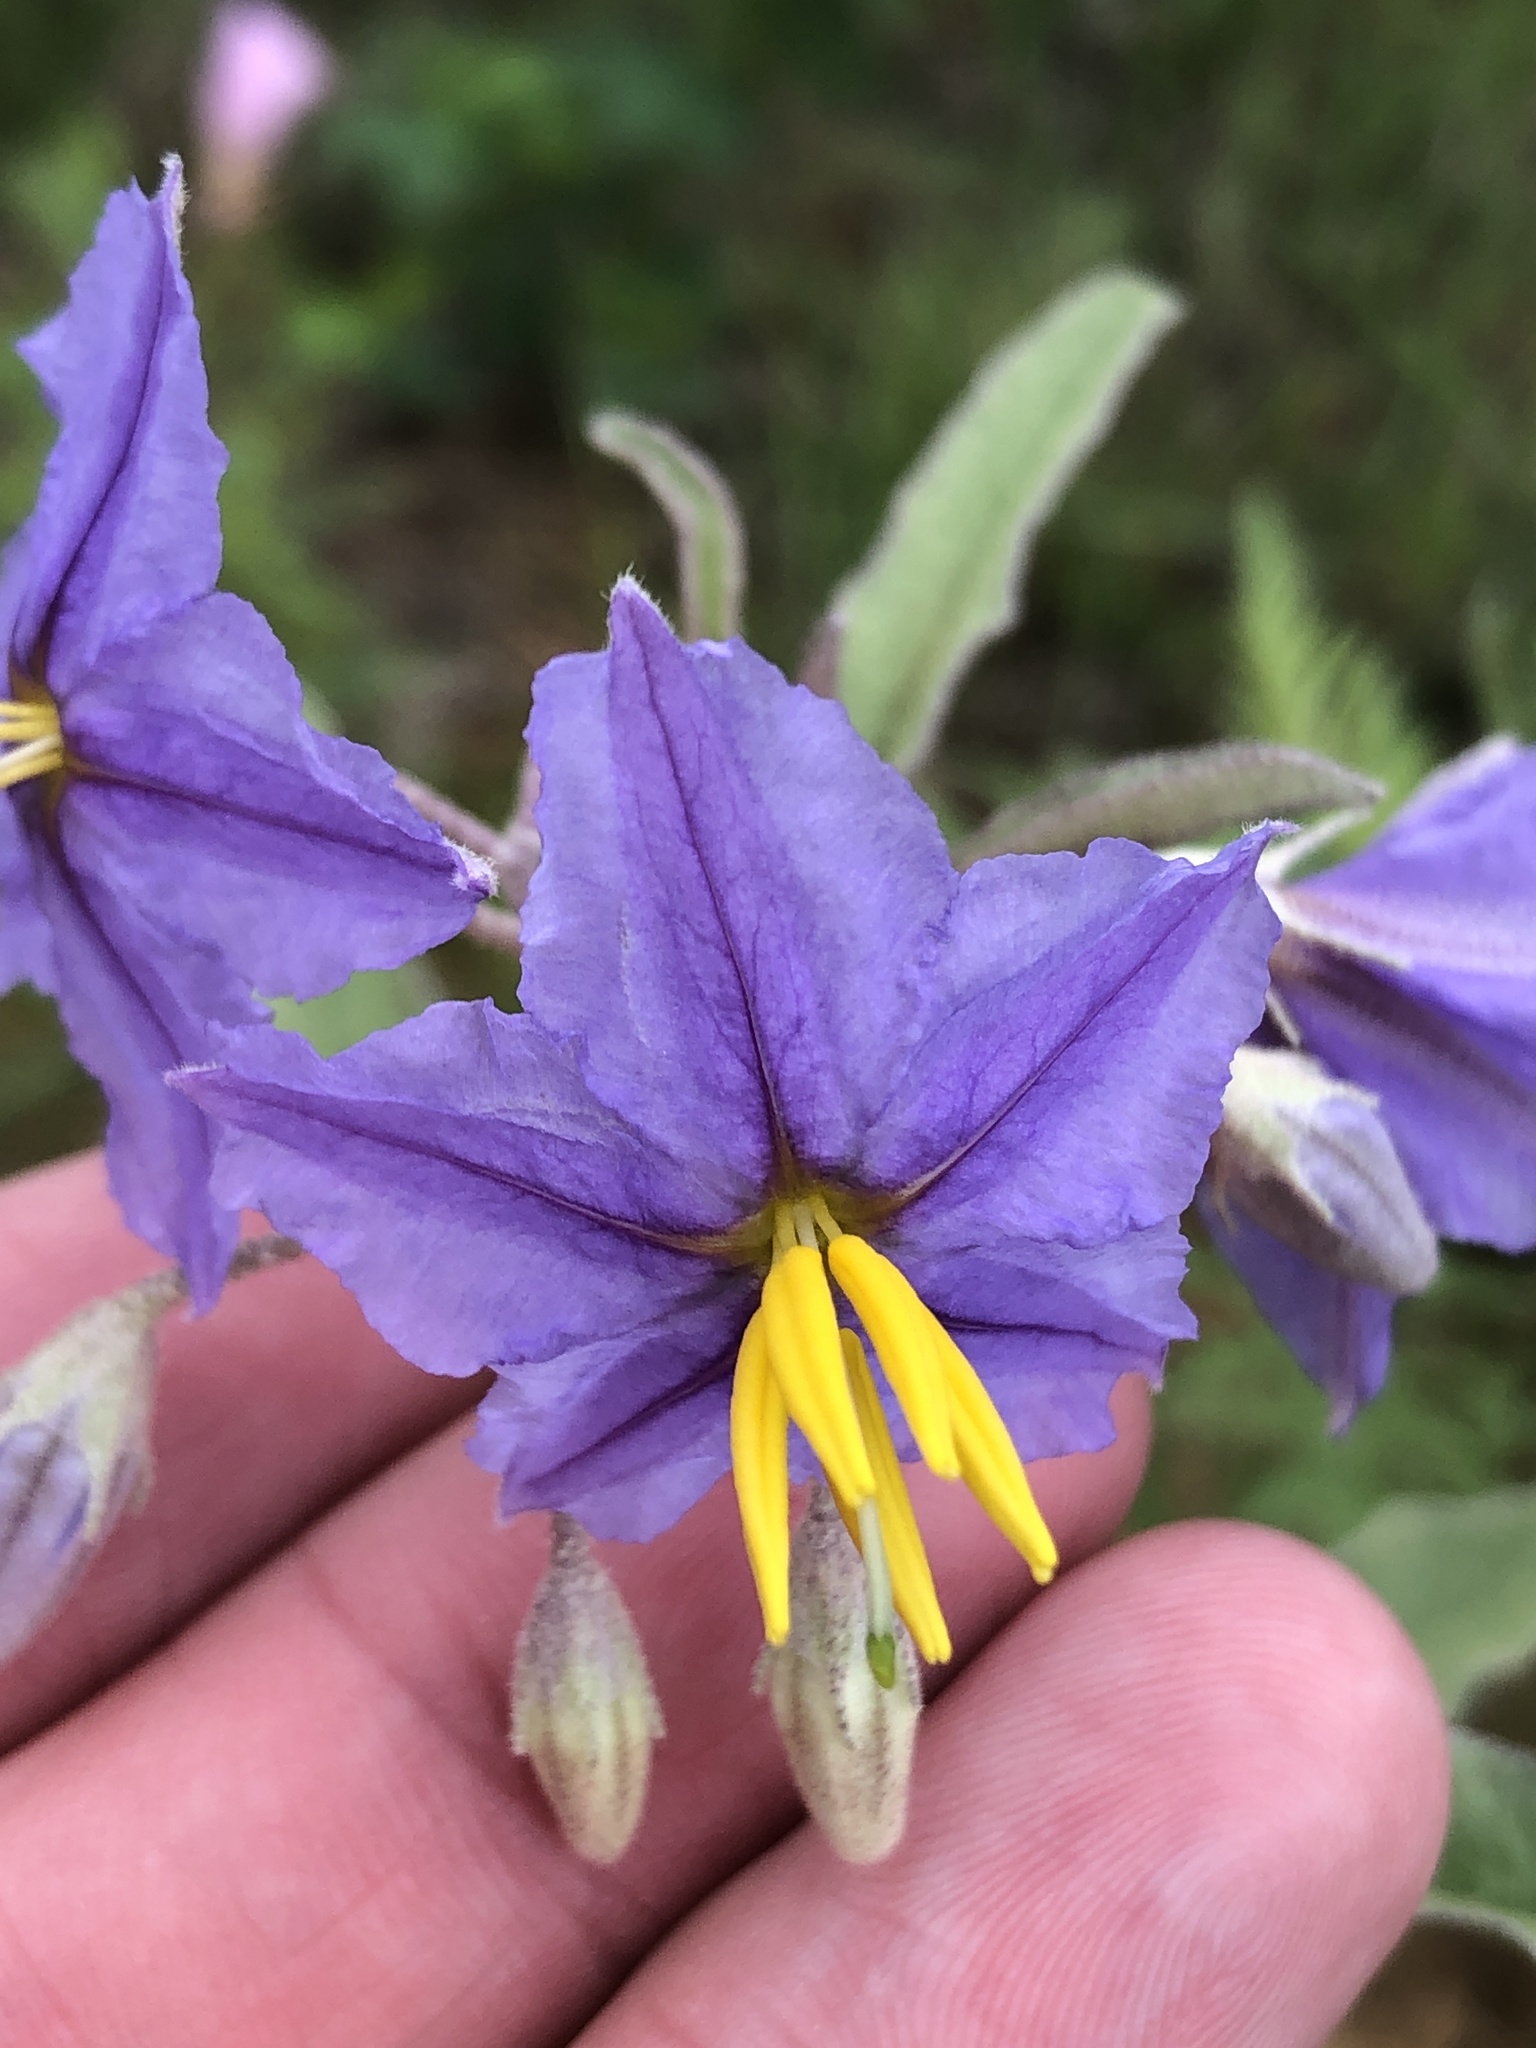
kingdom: Plantae
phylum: Tracheophyta
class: Magnoliopsida
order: Solanales
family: Solanaceae
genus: Solanum
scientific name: Solanum dimidiatum
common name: Carolina horse-nettle
